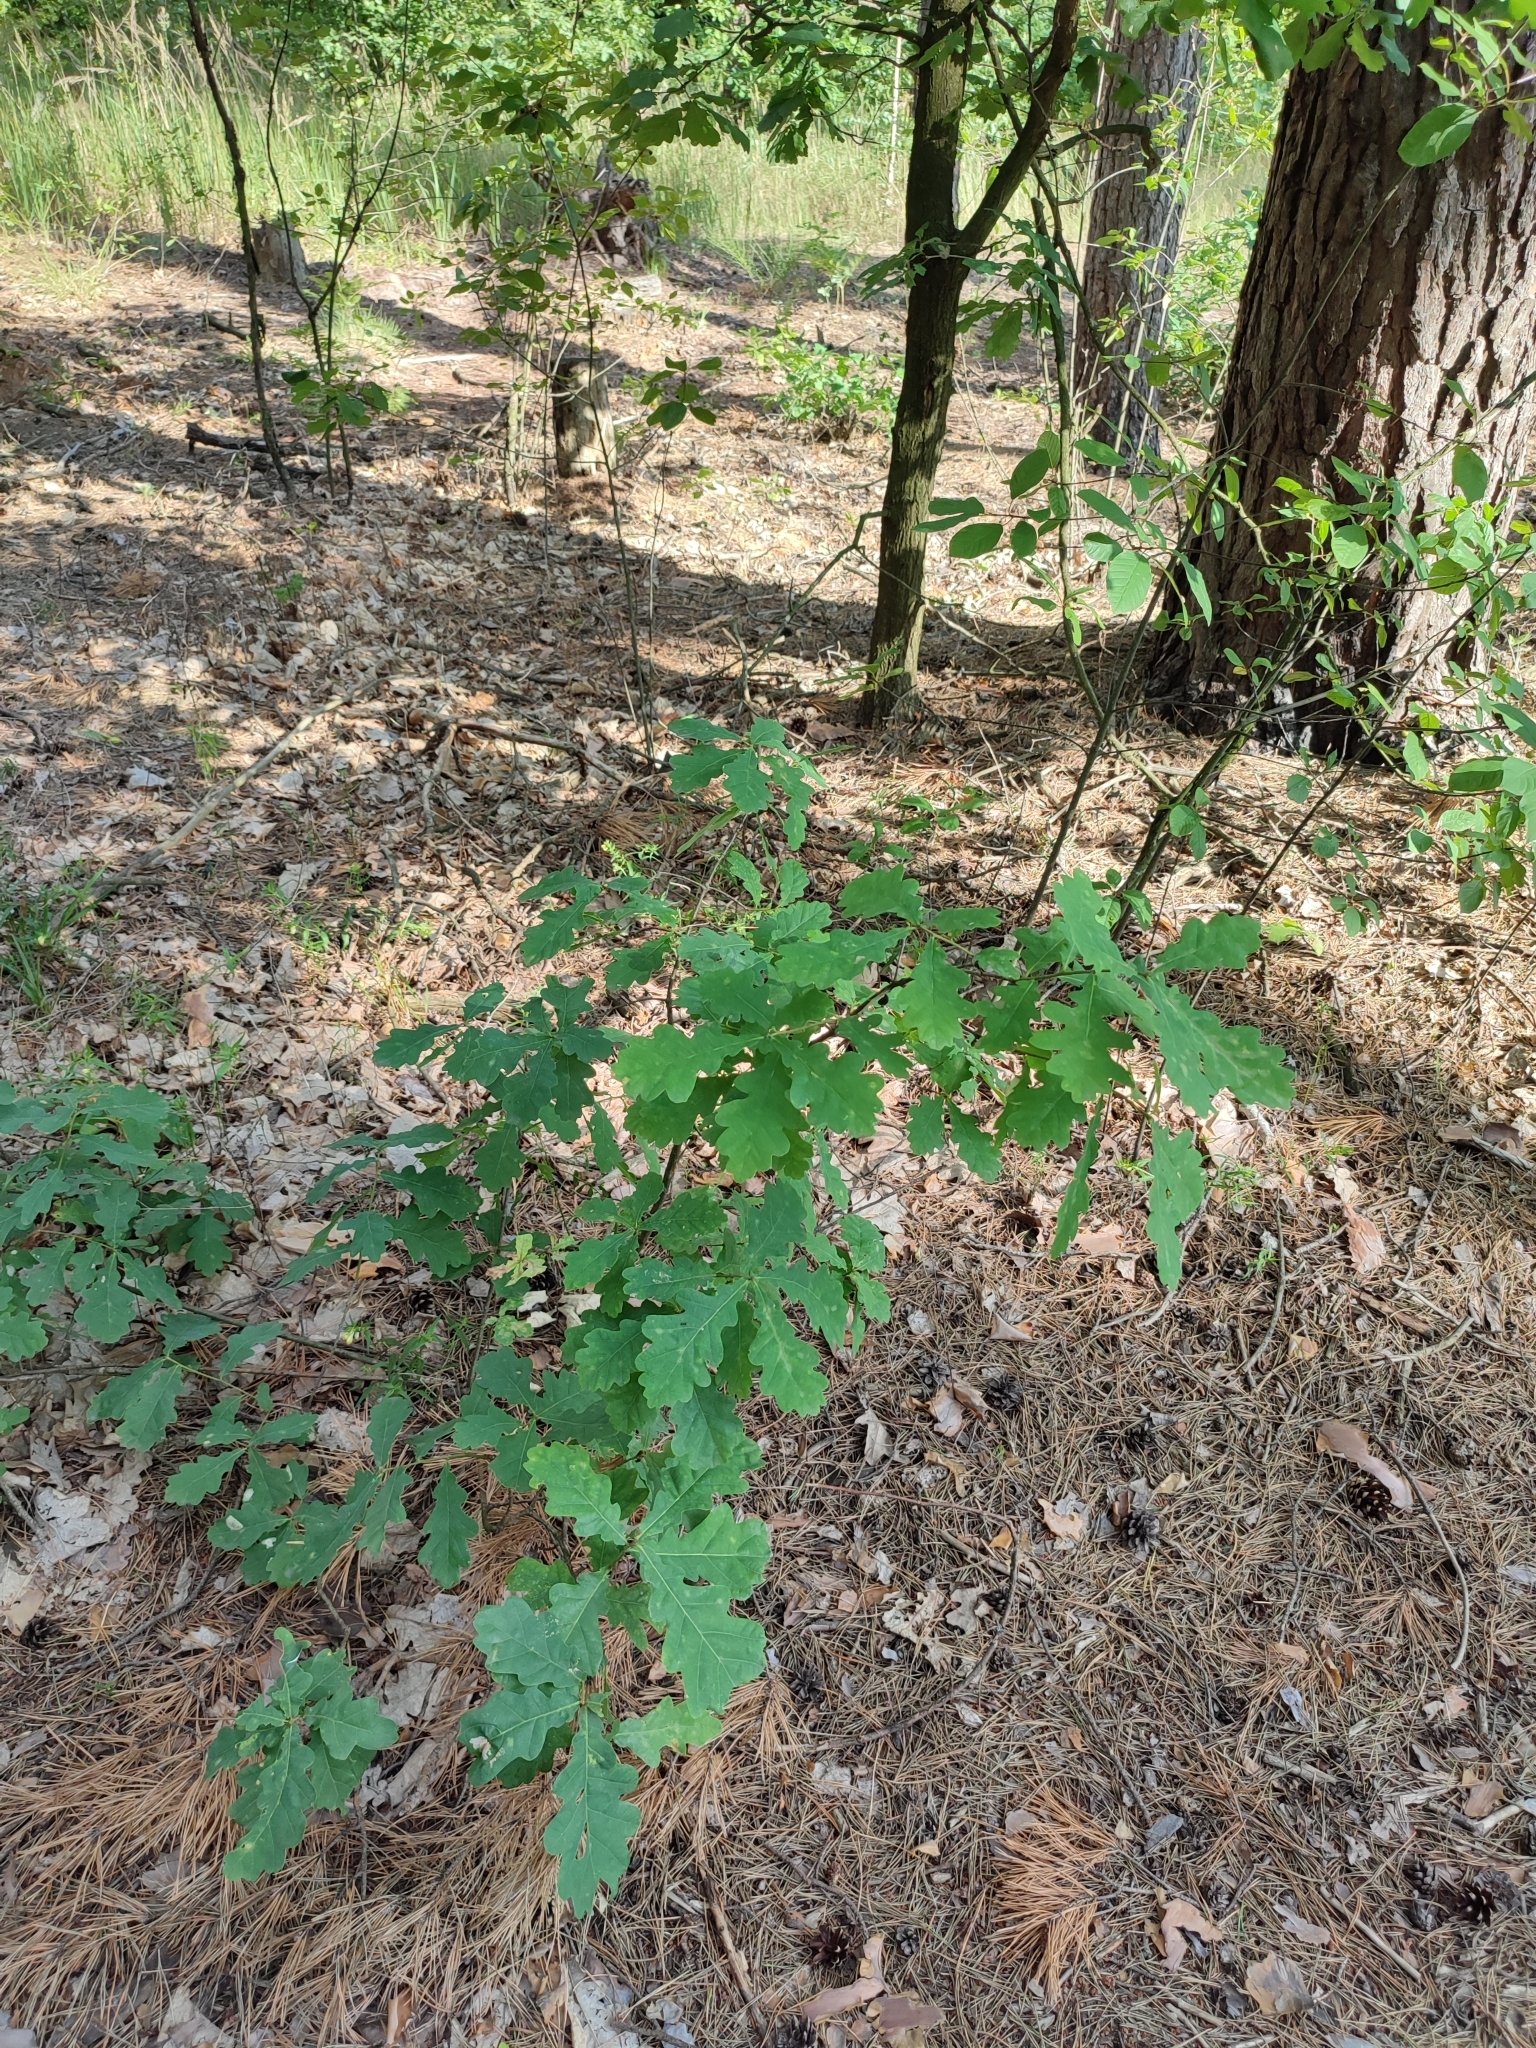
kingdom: Plantae
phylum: Tracheophyta
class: Magnoliopsida
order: Fagales
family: Fagaceae
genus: Quercus
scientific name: Quercus robur
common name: Pedunculate oak
